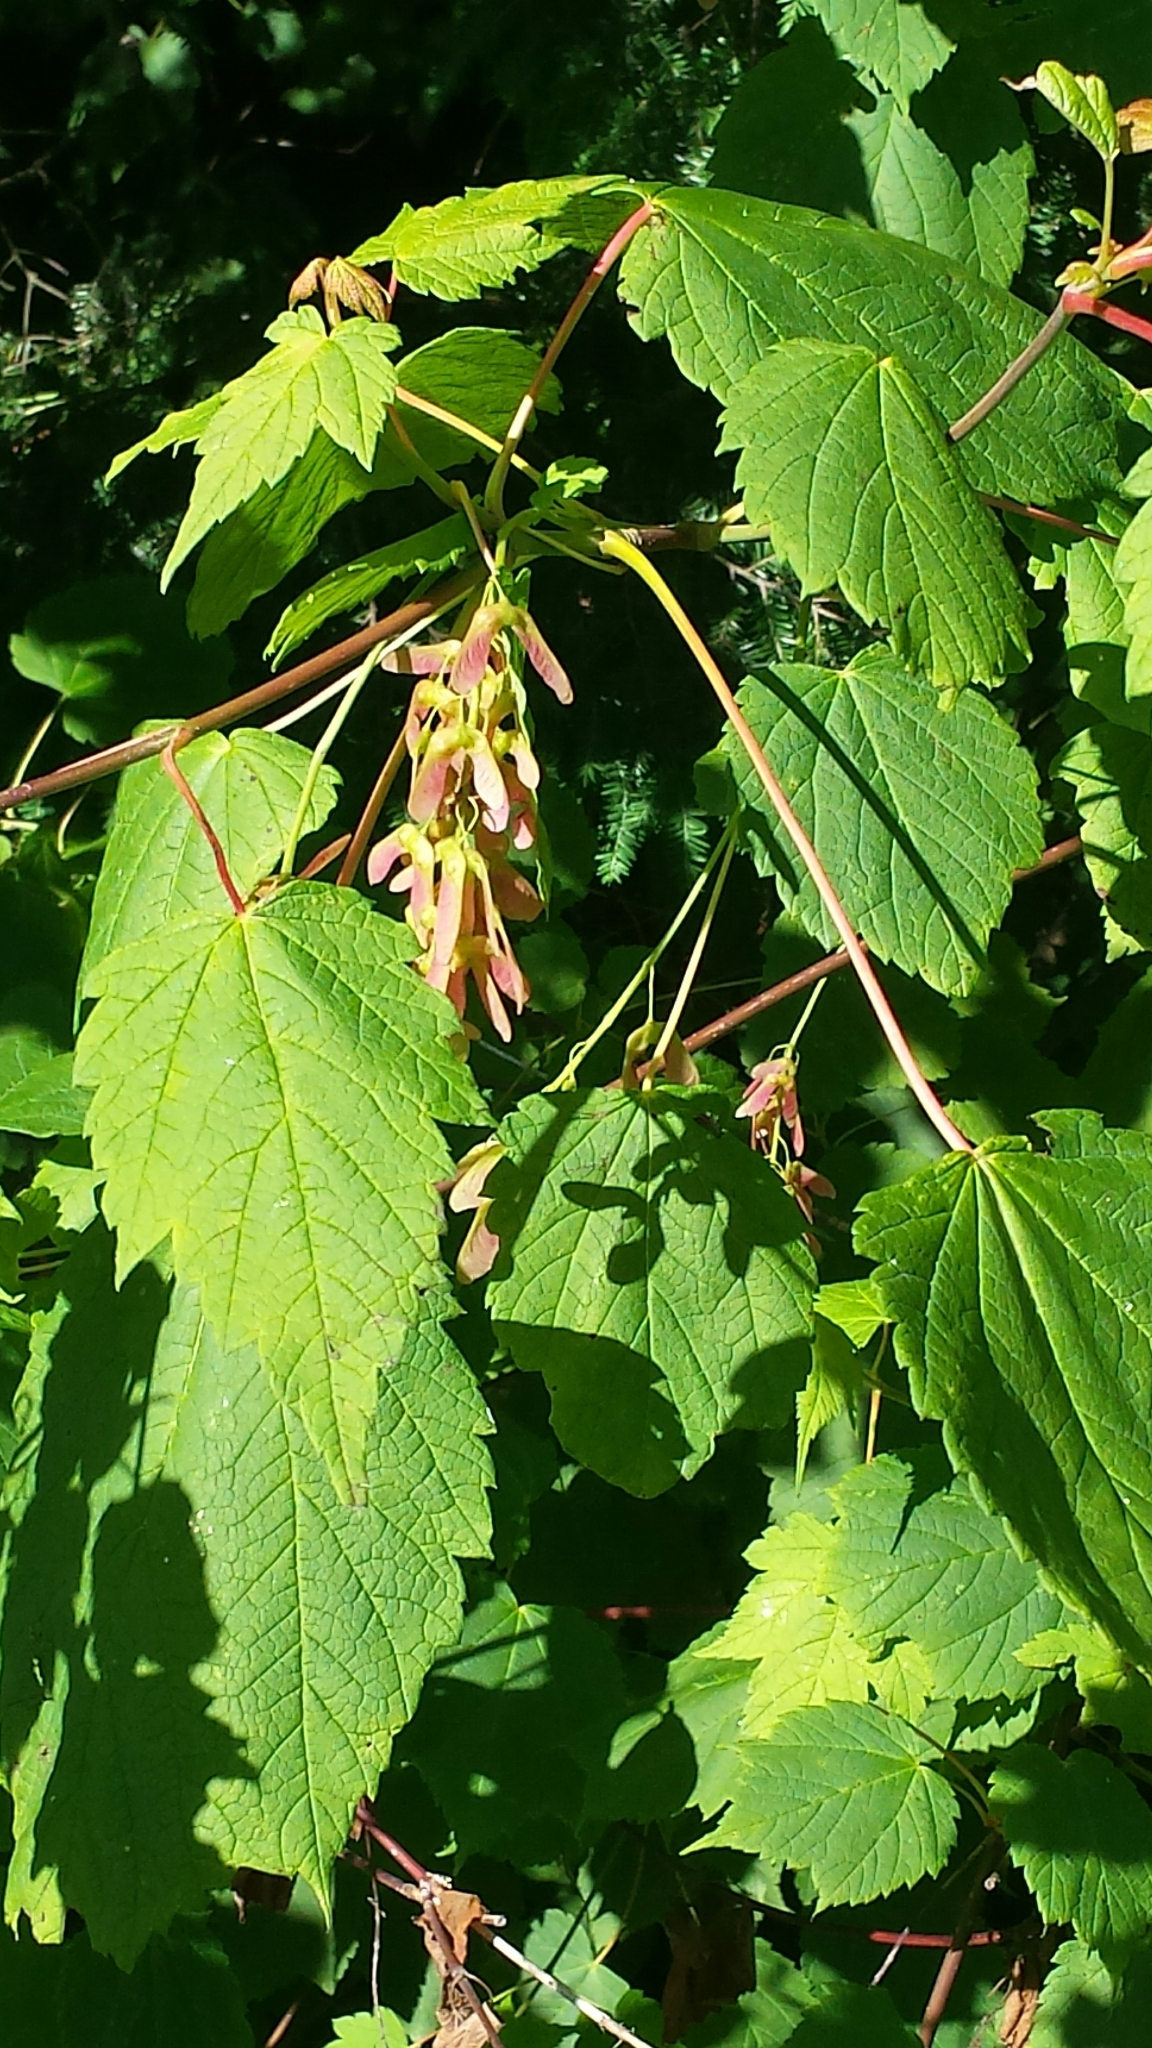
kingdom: Plantae
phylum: Tracheophyta
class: Magnoliopsida
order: Sapindales
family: Sapindaceae
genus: Acer
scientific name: Acer spicatum
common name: Mountain maple
